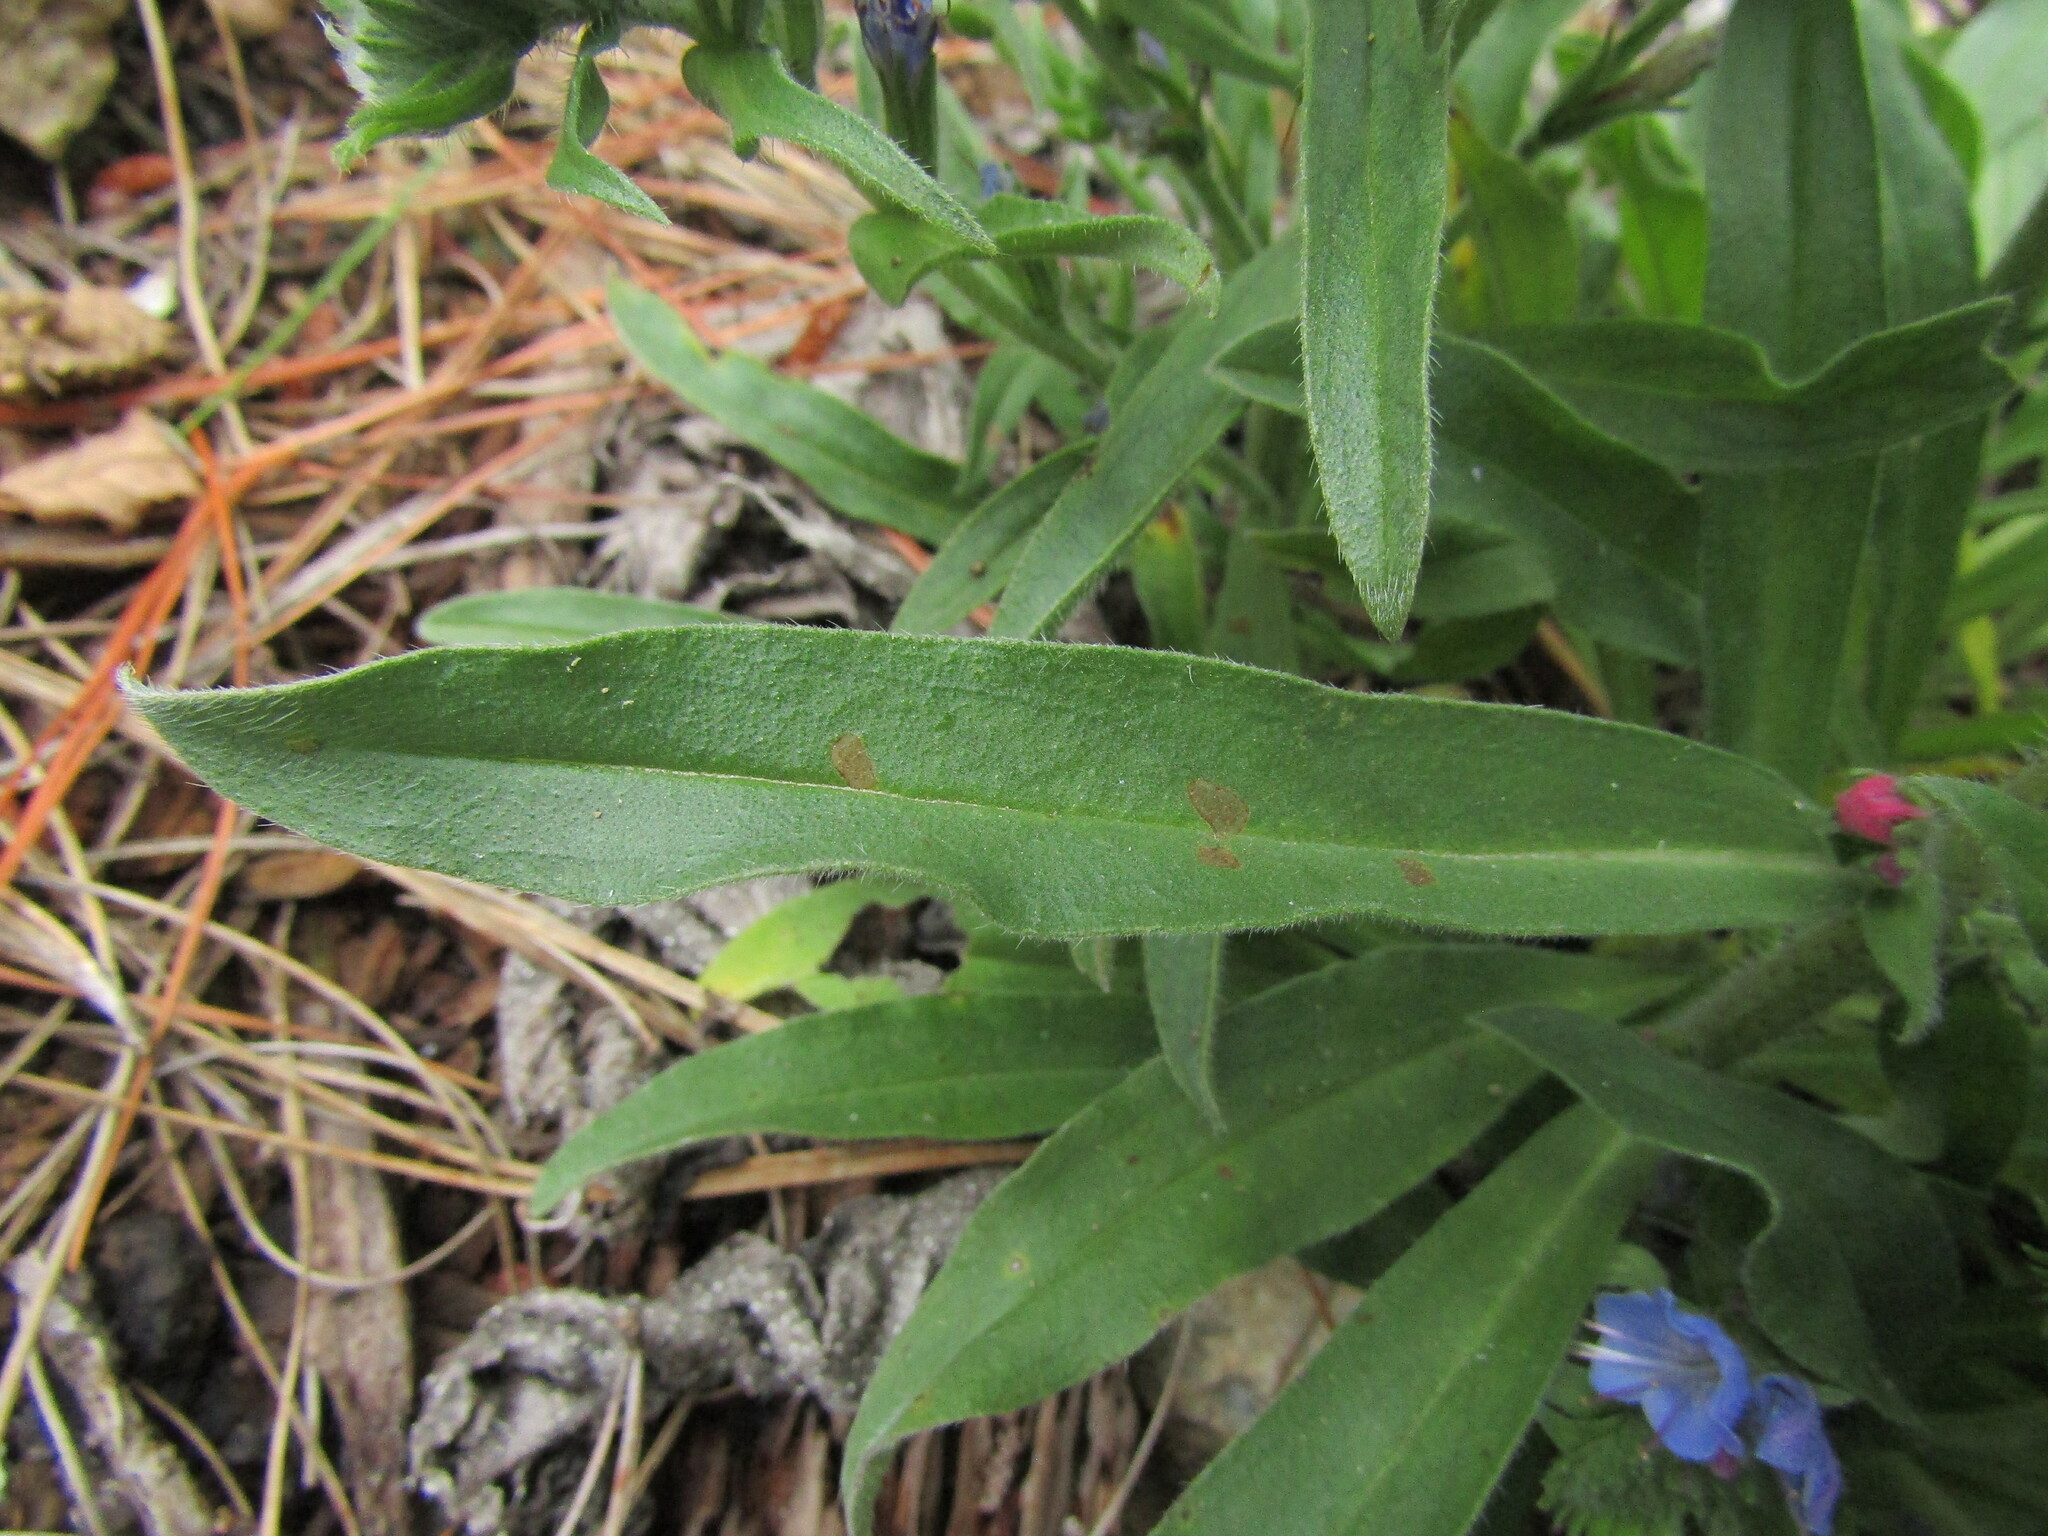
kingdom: Plantae
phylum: Tracheophyta
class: Magnoliopsida
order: Boraginales
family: Boraginaceae
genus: Echium
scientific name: Echium vulgare
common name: Common viper's bugloss
